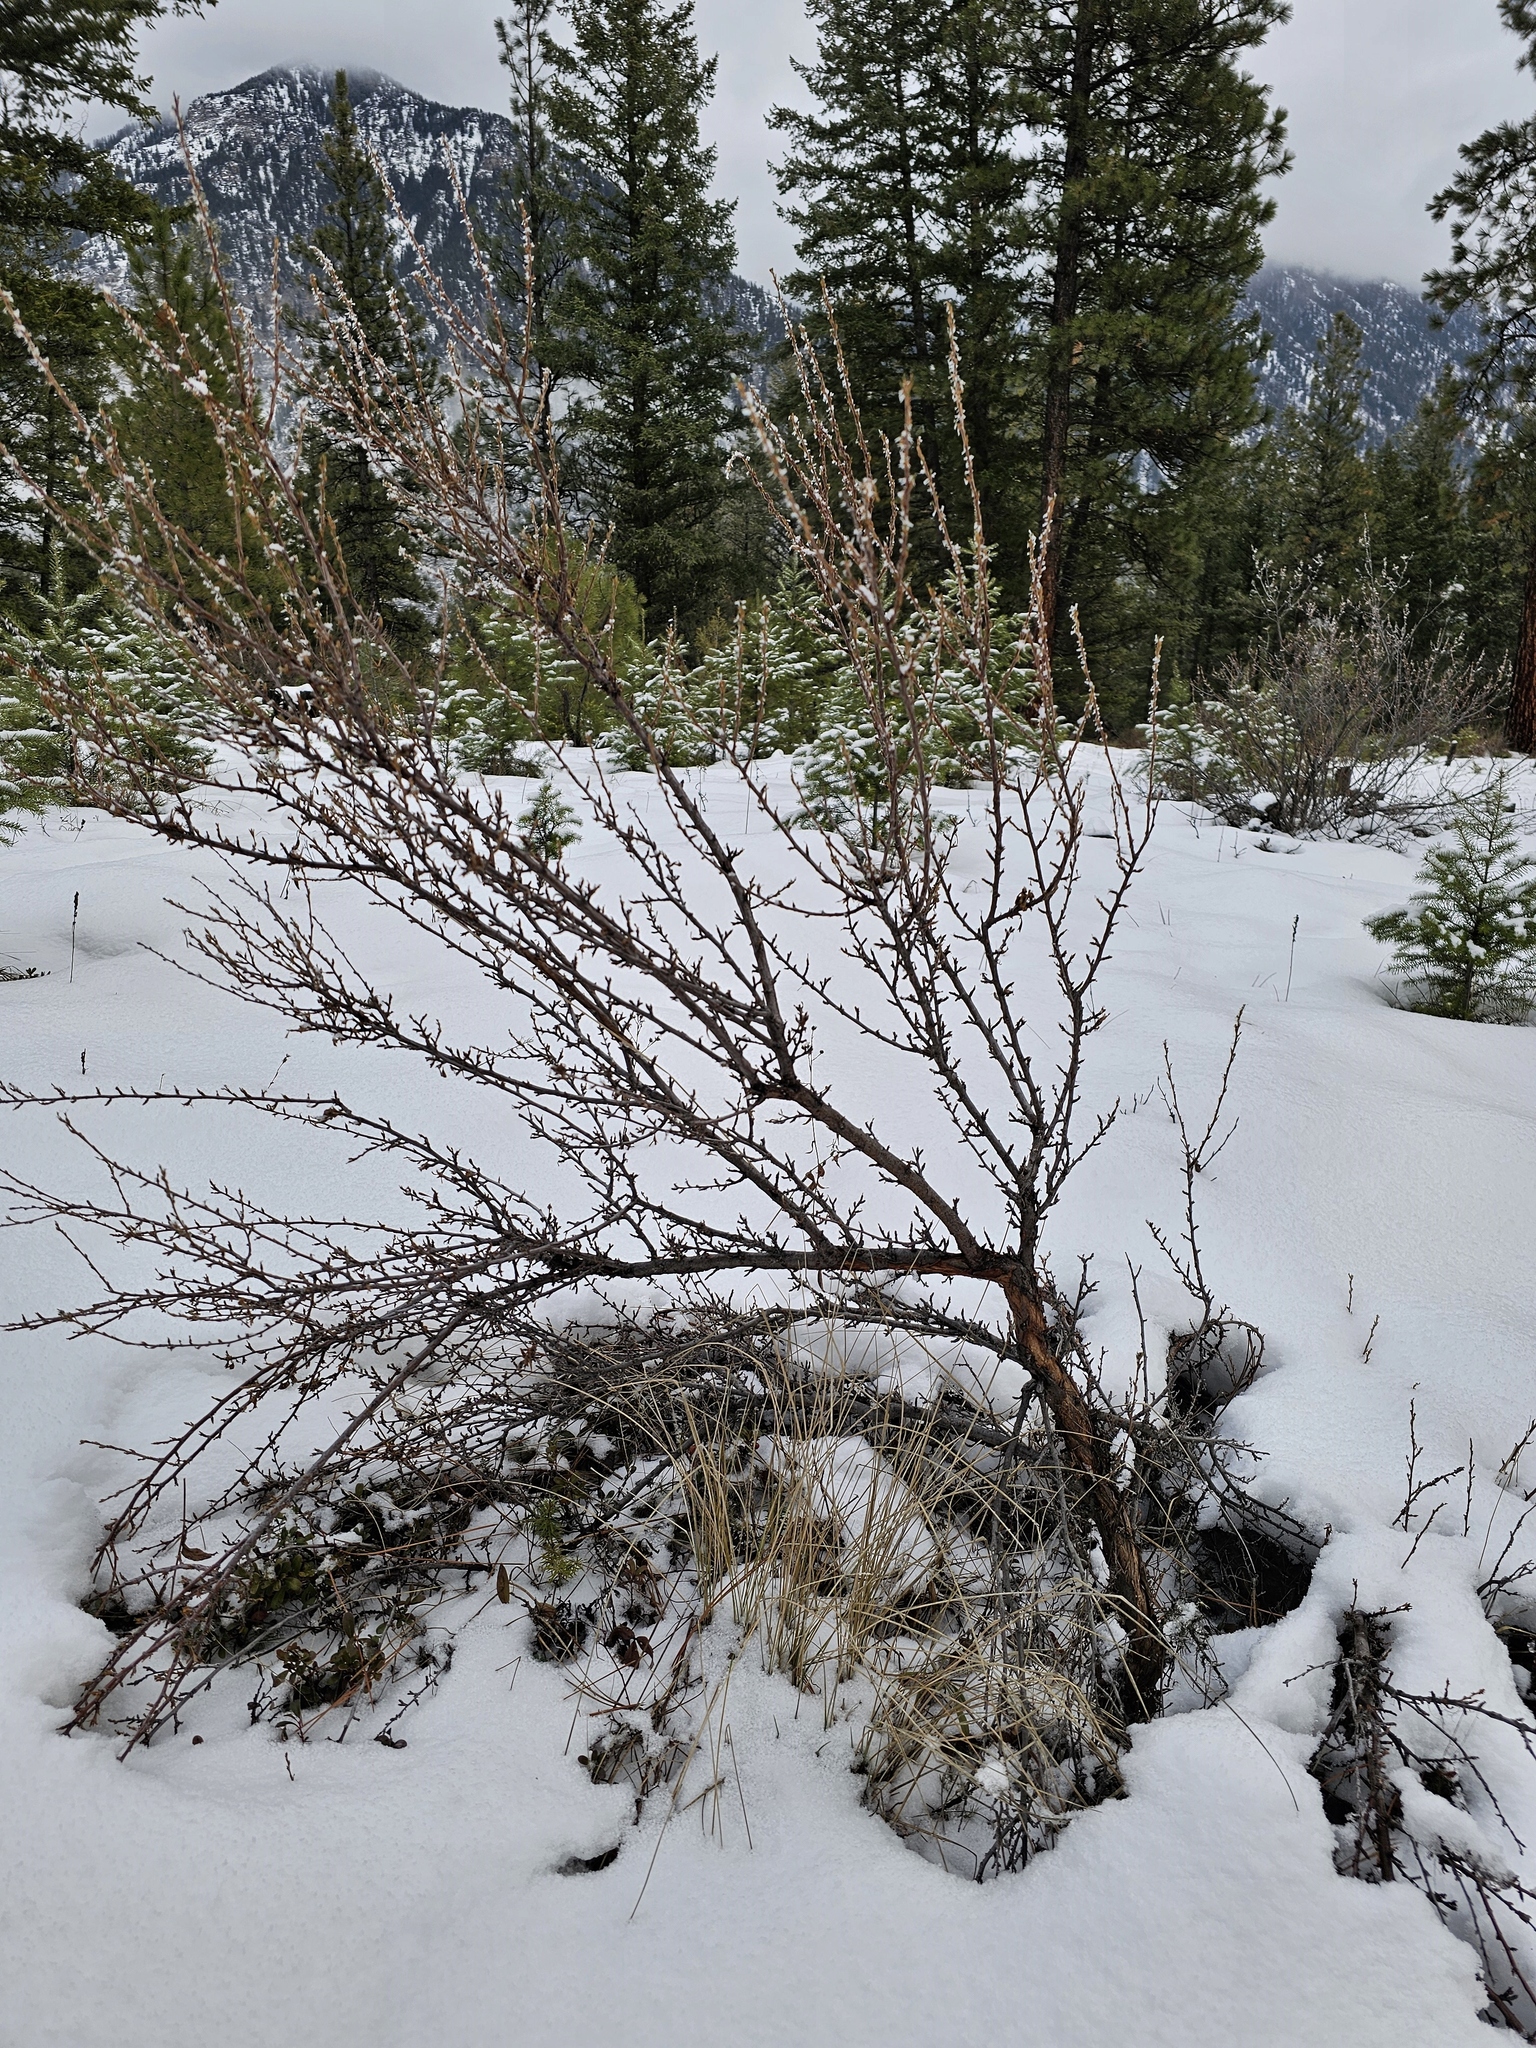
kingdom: Plantae
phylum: Tracheophyta
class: Magnoliopsida
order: Rosales
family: Rosaceae
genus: Purshia
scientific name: Purshia tridentata
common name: Antelope bitterbrush
